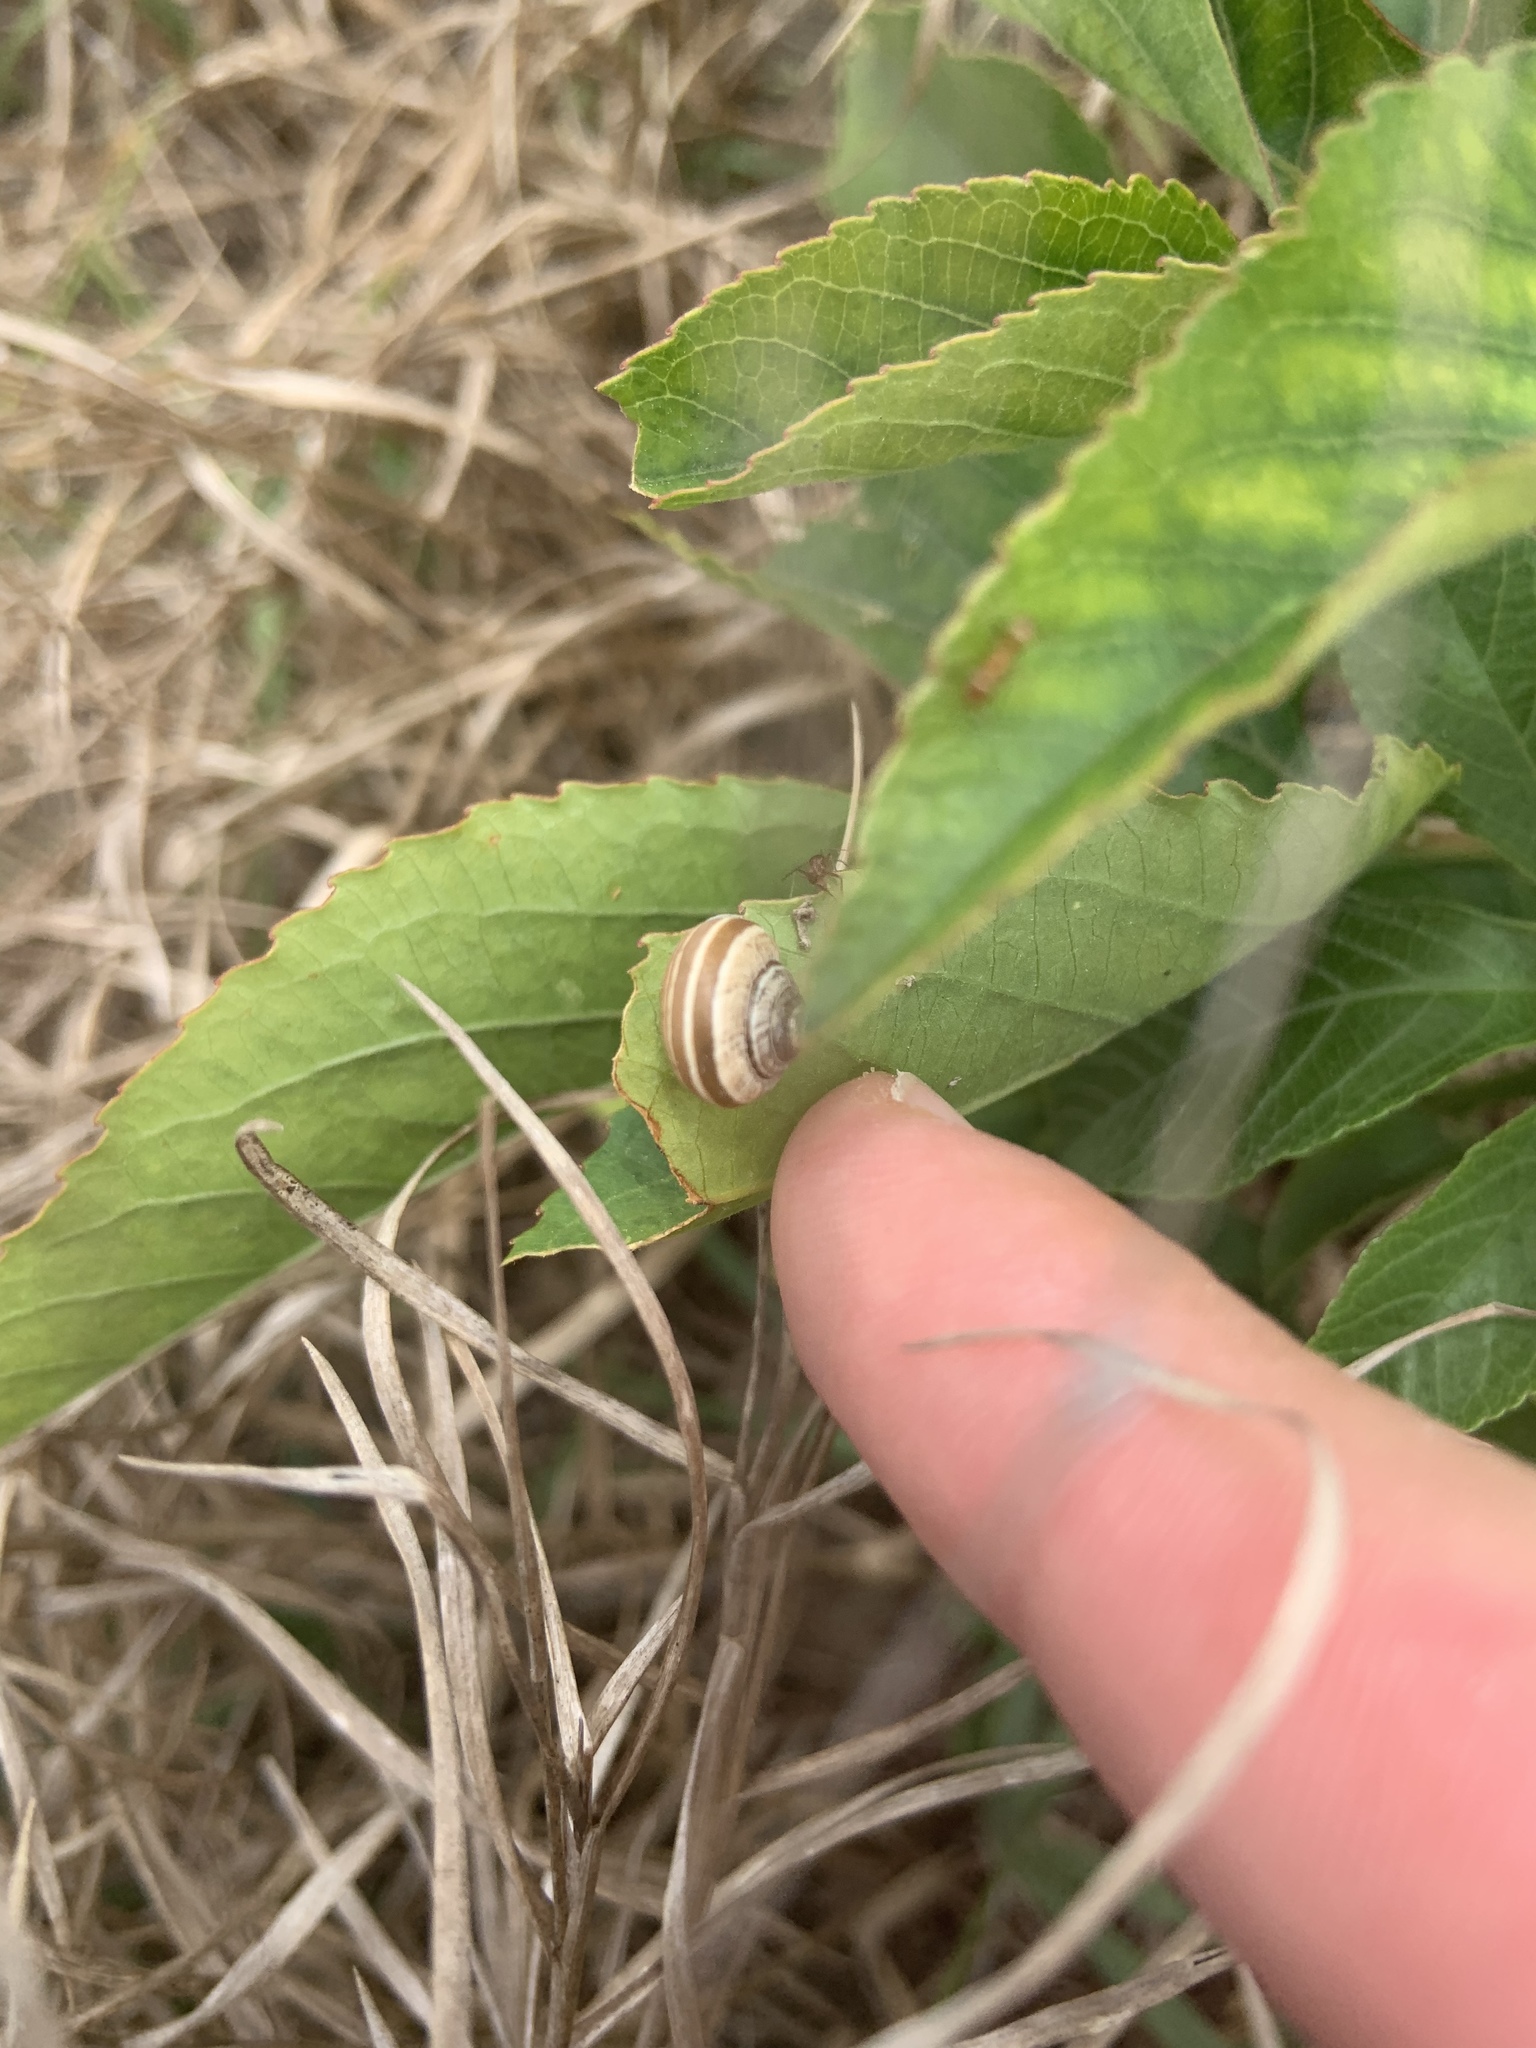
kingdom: Animalia
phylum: Mollusca
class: Gastropoda
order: Stylommatophora
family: Camaenidae
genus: Bradybaena
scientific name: Bradybaena similaris
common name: Asian trampsnail
